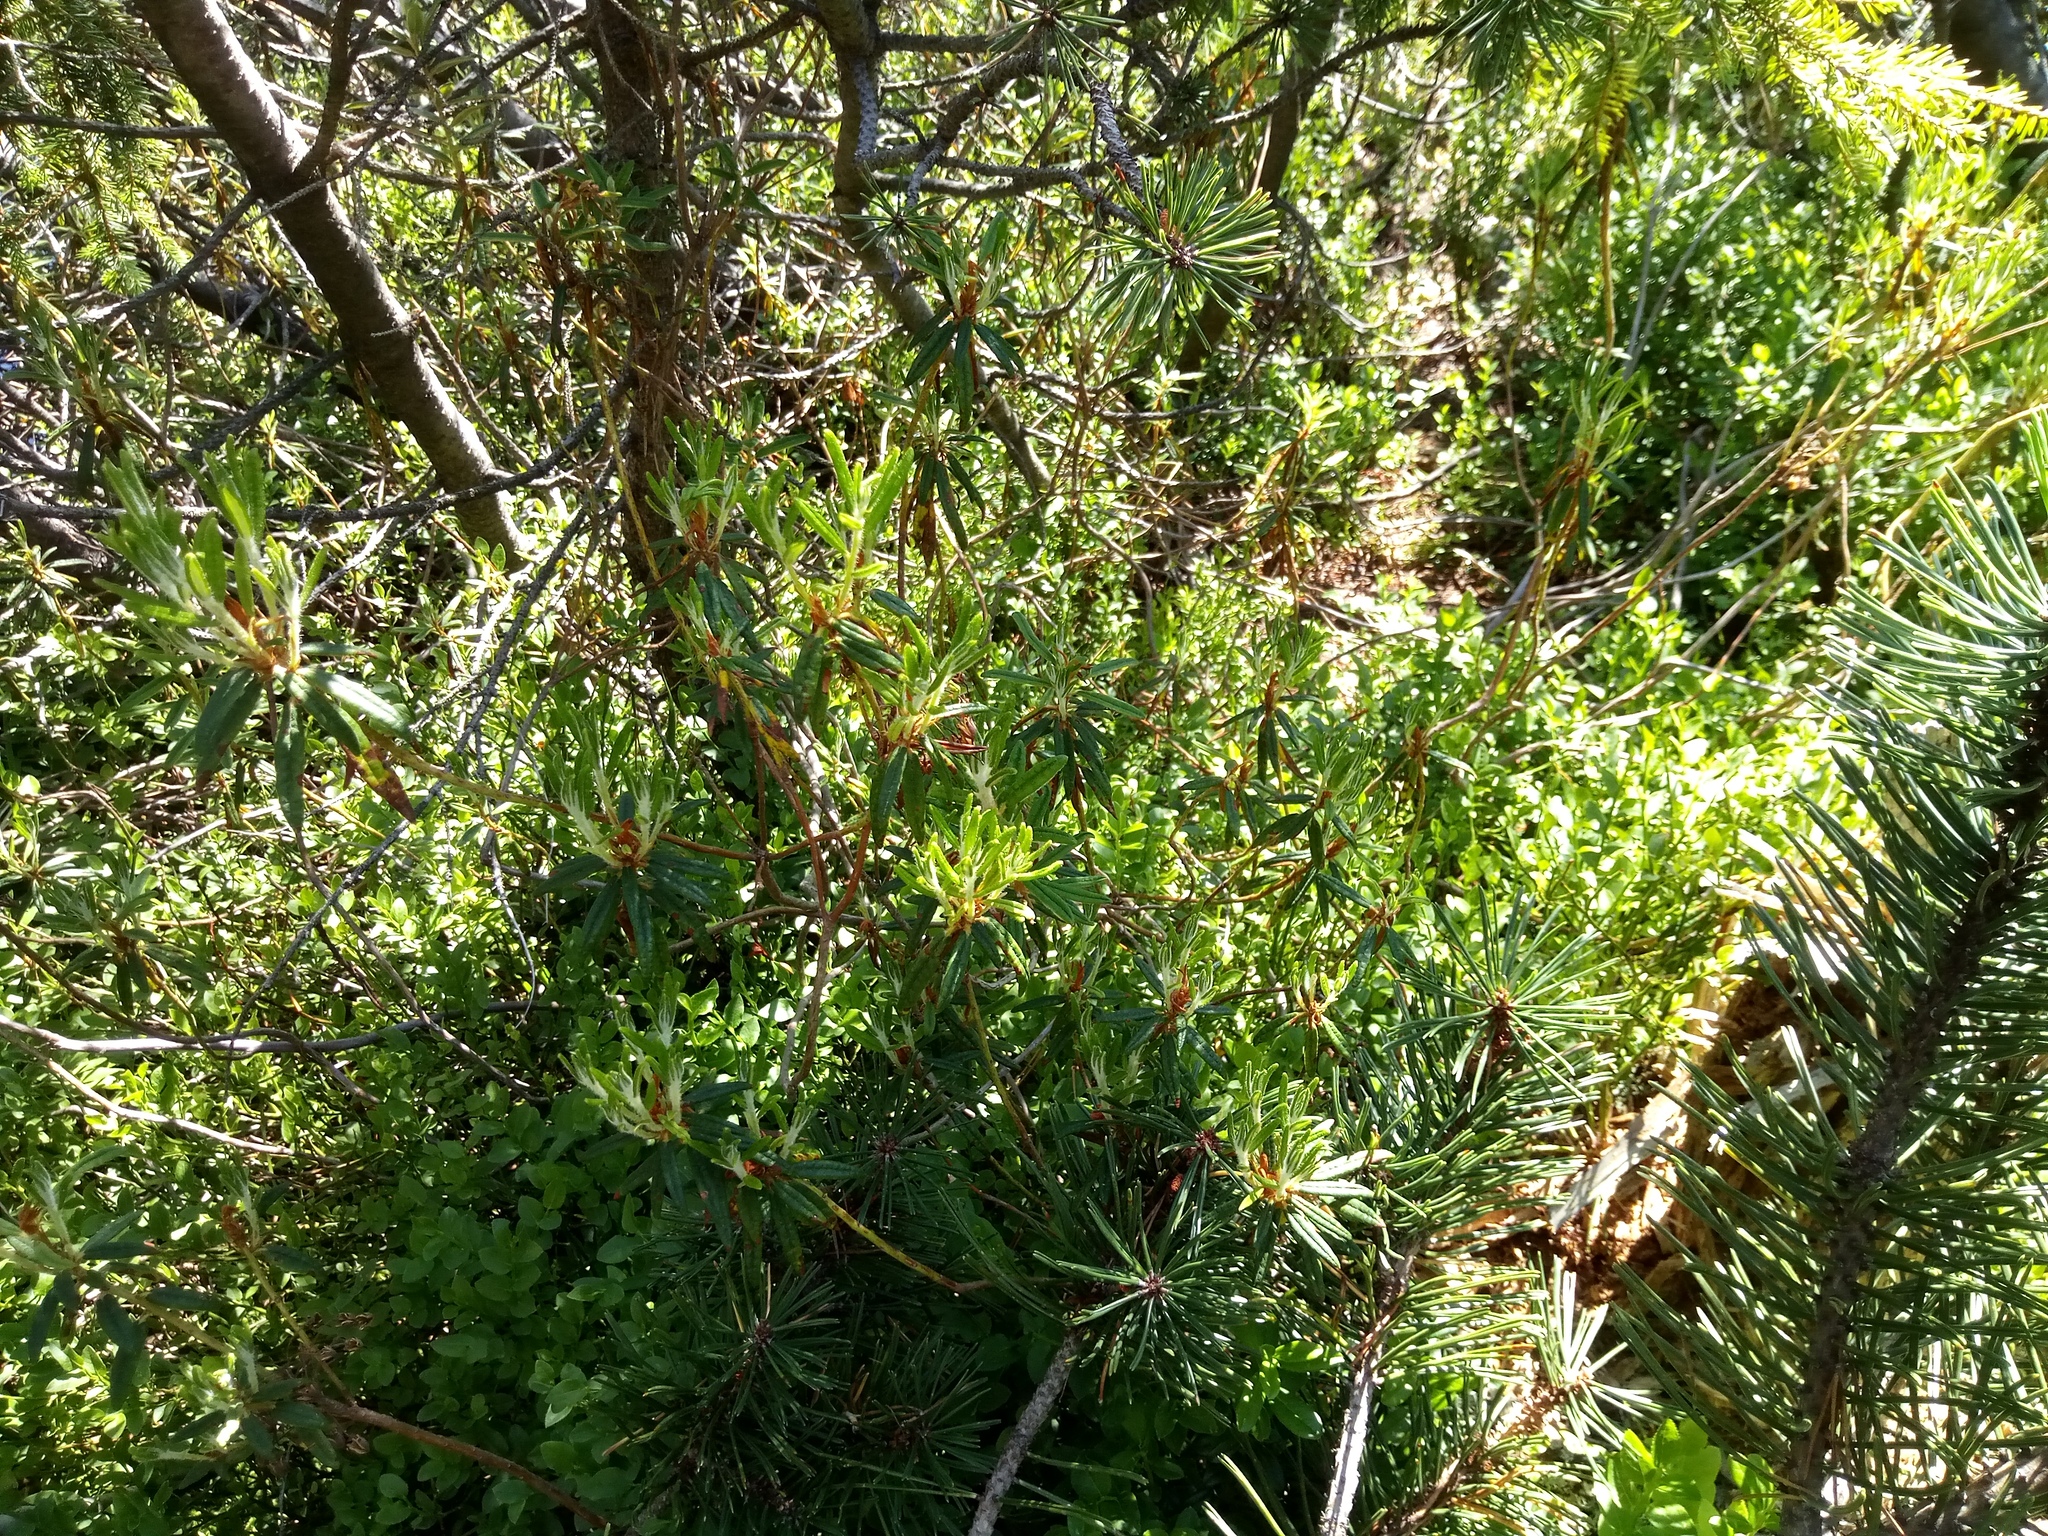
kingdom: Plantae
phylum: Tracheophyta
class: Magnoliopsida
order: Ericales
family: Ericaceae
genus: Rhododendron
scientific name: Rhododendron tomentosum
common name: Marsh labrador tea
